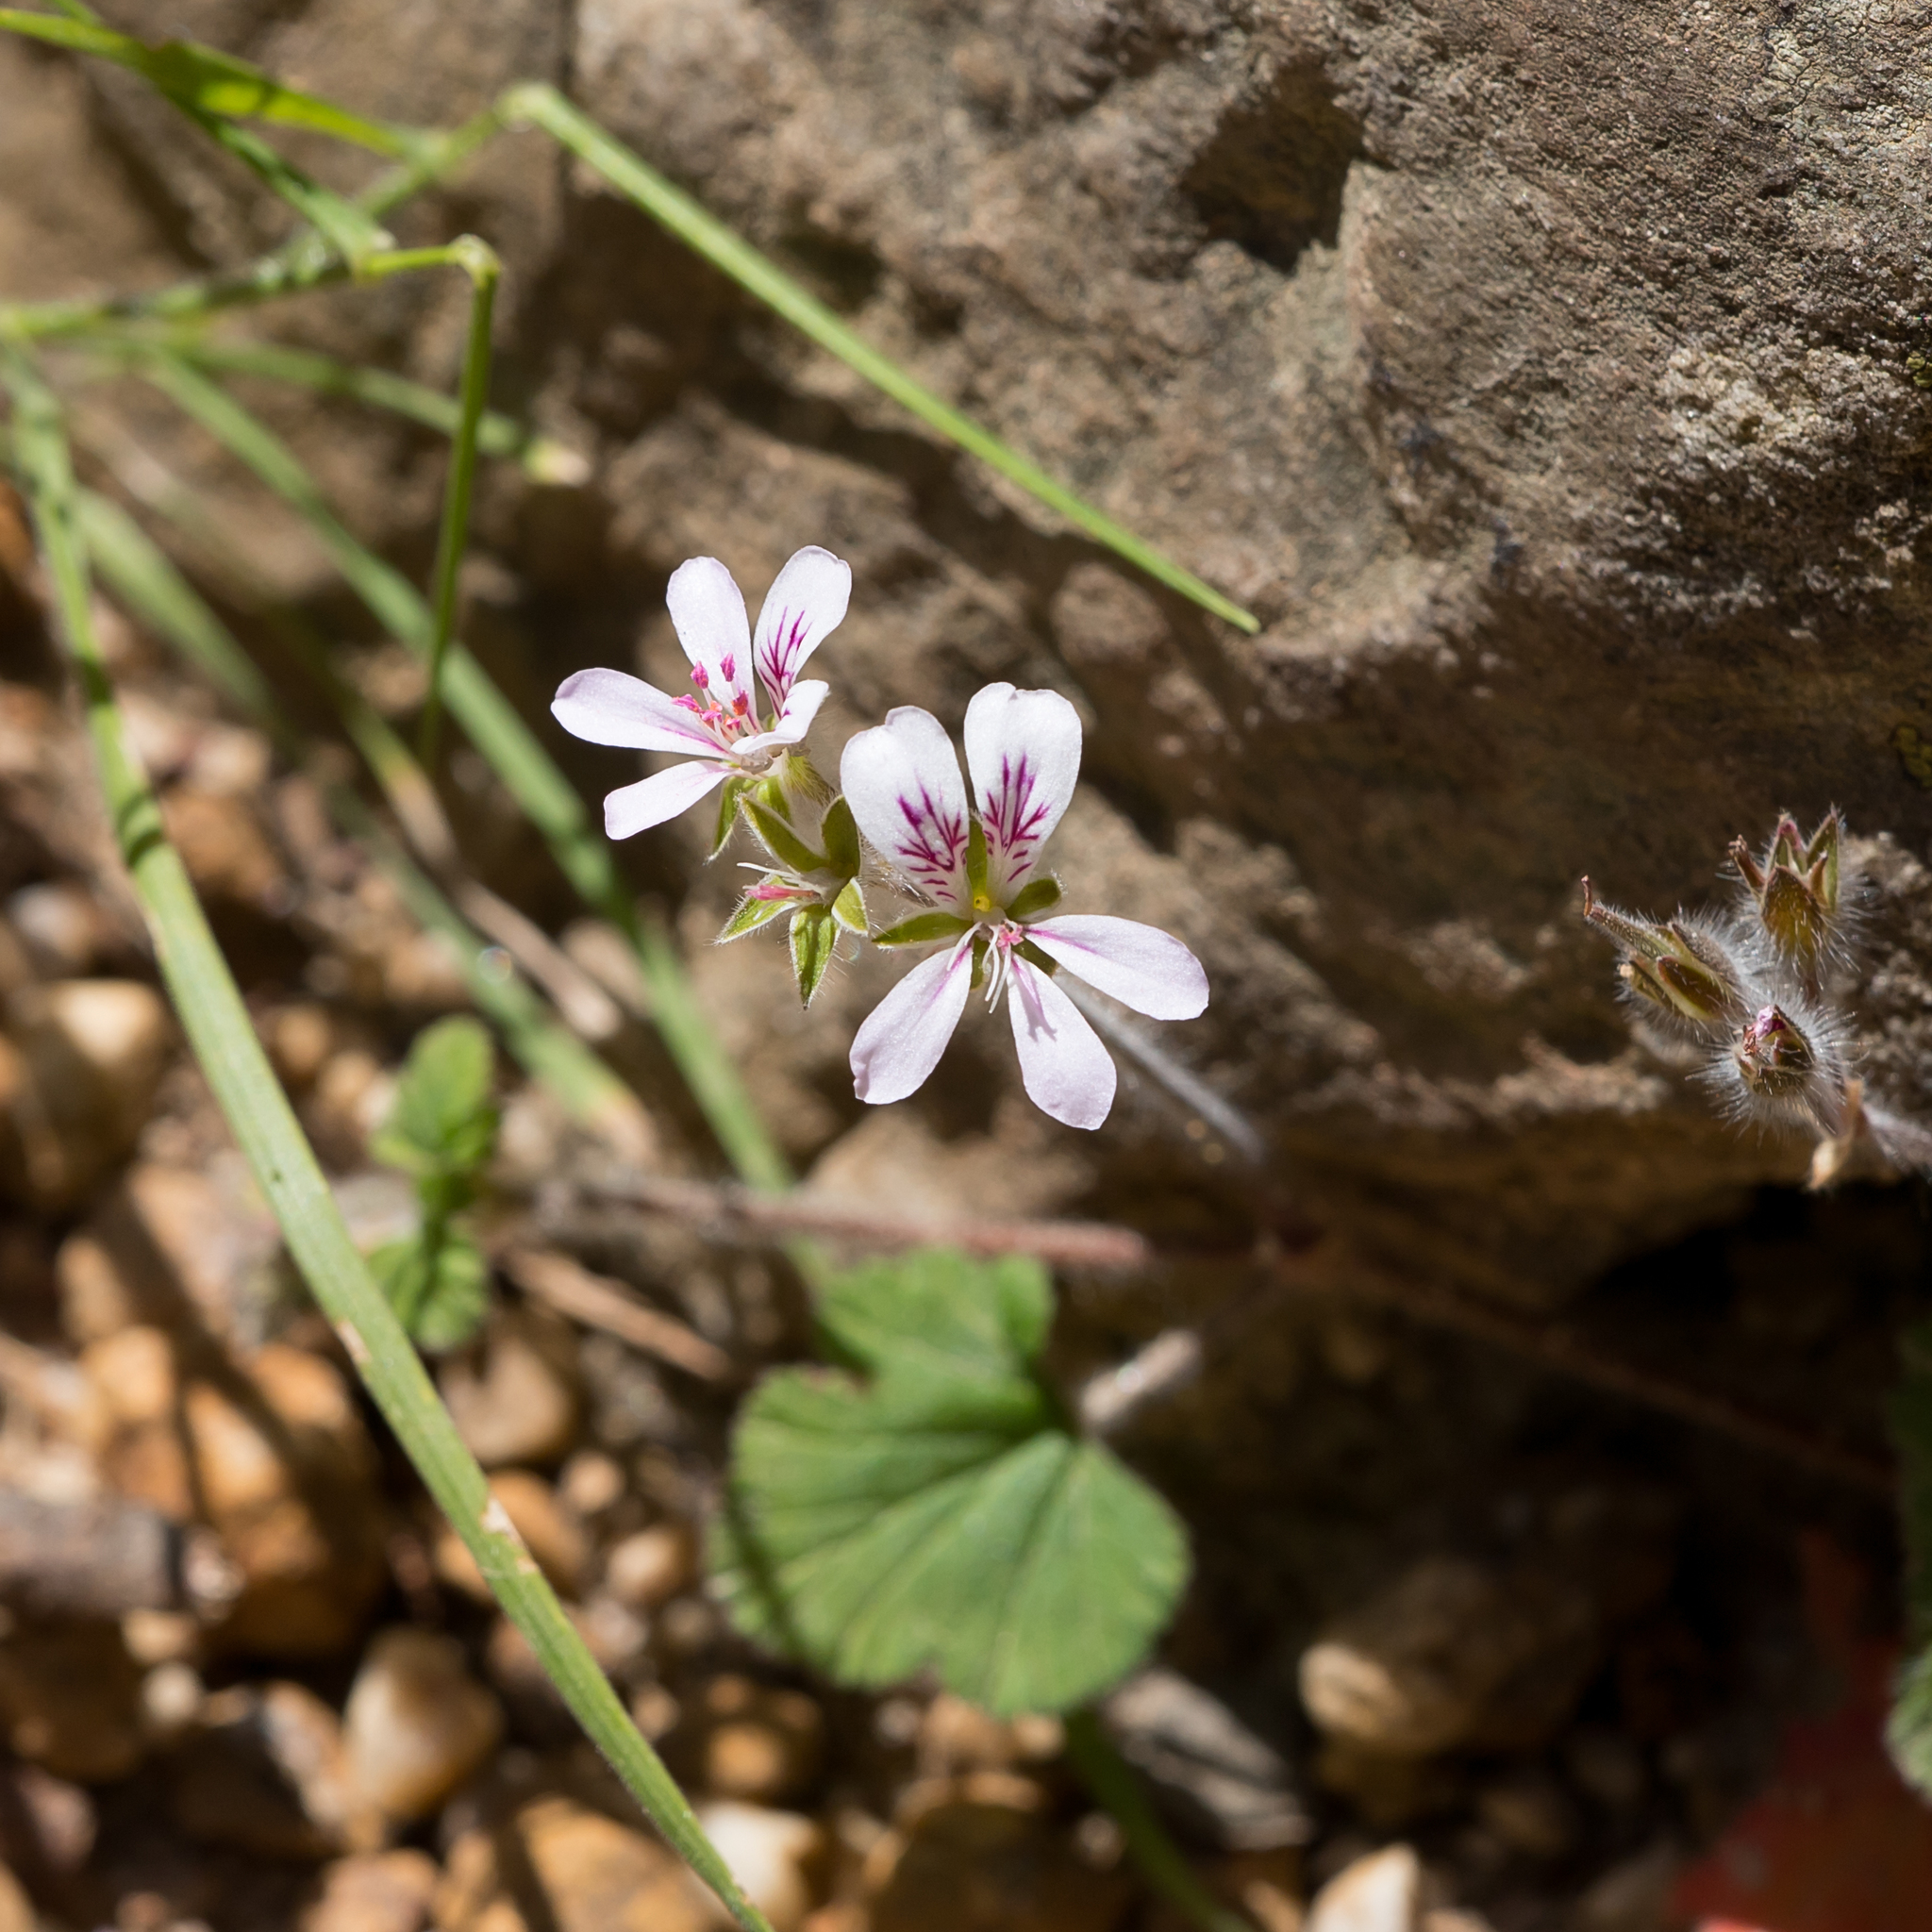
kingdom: Plantae
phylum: Tracheophyta
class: Magnoliopsida
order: Geraniales
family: Geraniaceae
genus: Pelargonium
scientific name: Pelargonium australe
